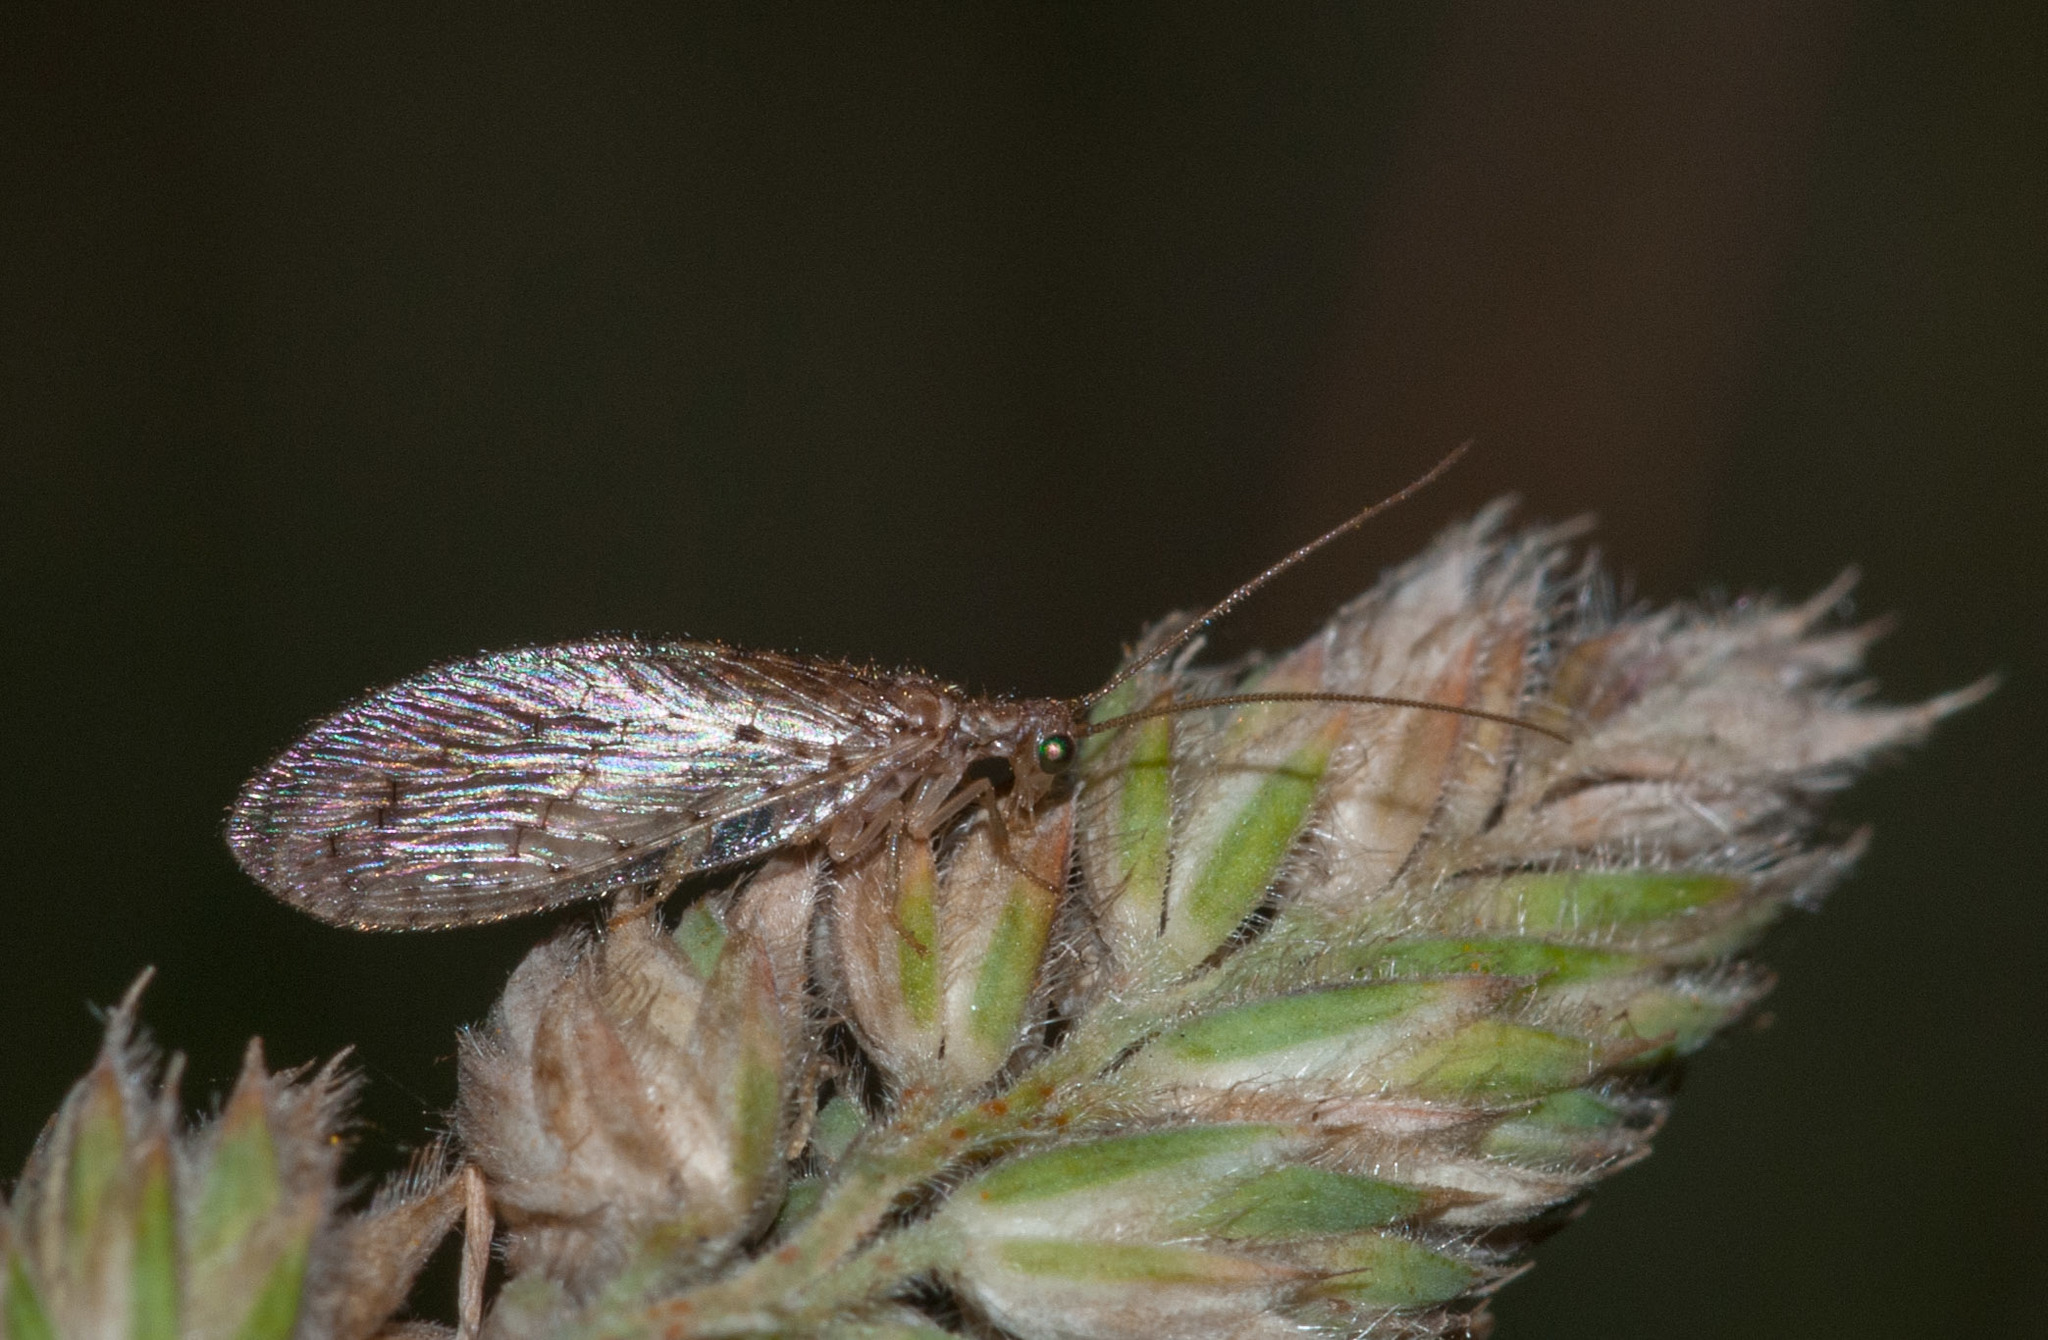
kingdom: Animalia
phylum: Arthropoda
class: Insecta
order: Neuroptera
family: Hemerobiidae
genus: Micromus
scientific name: Micromus tasmaniae
